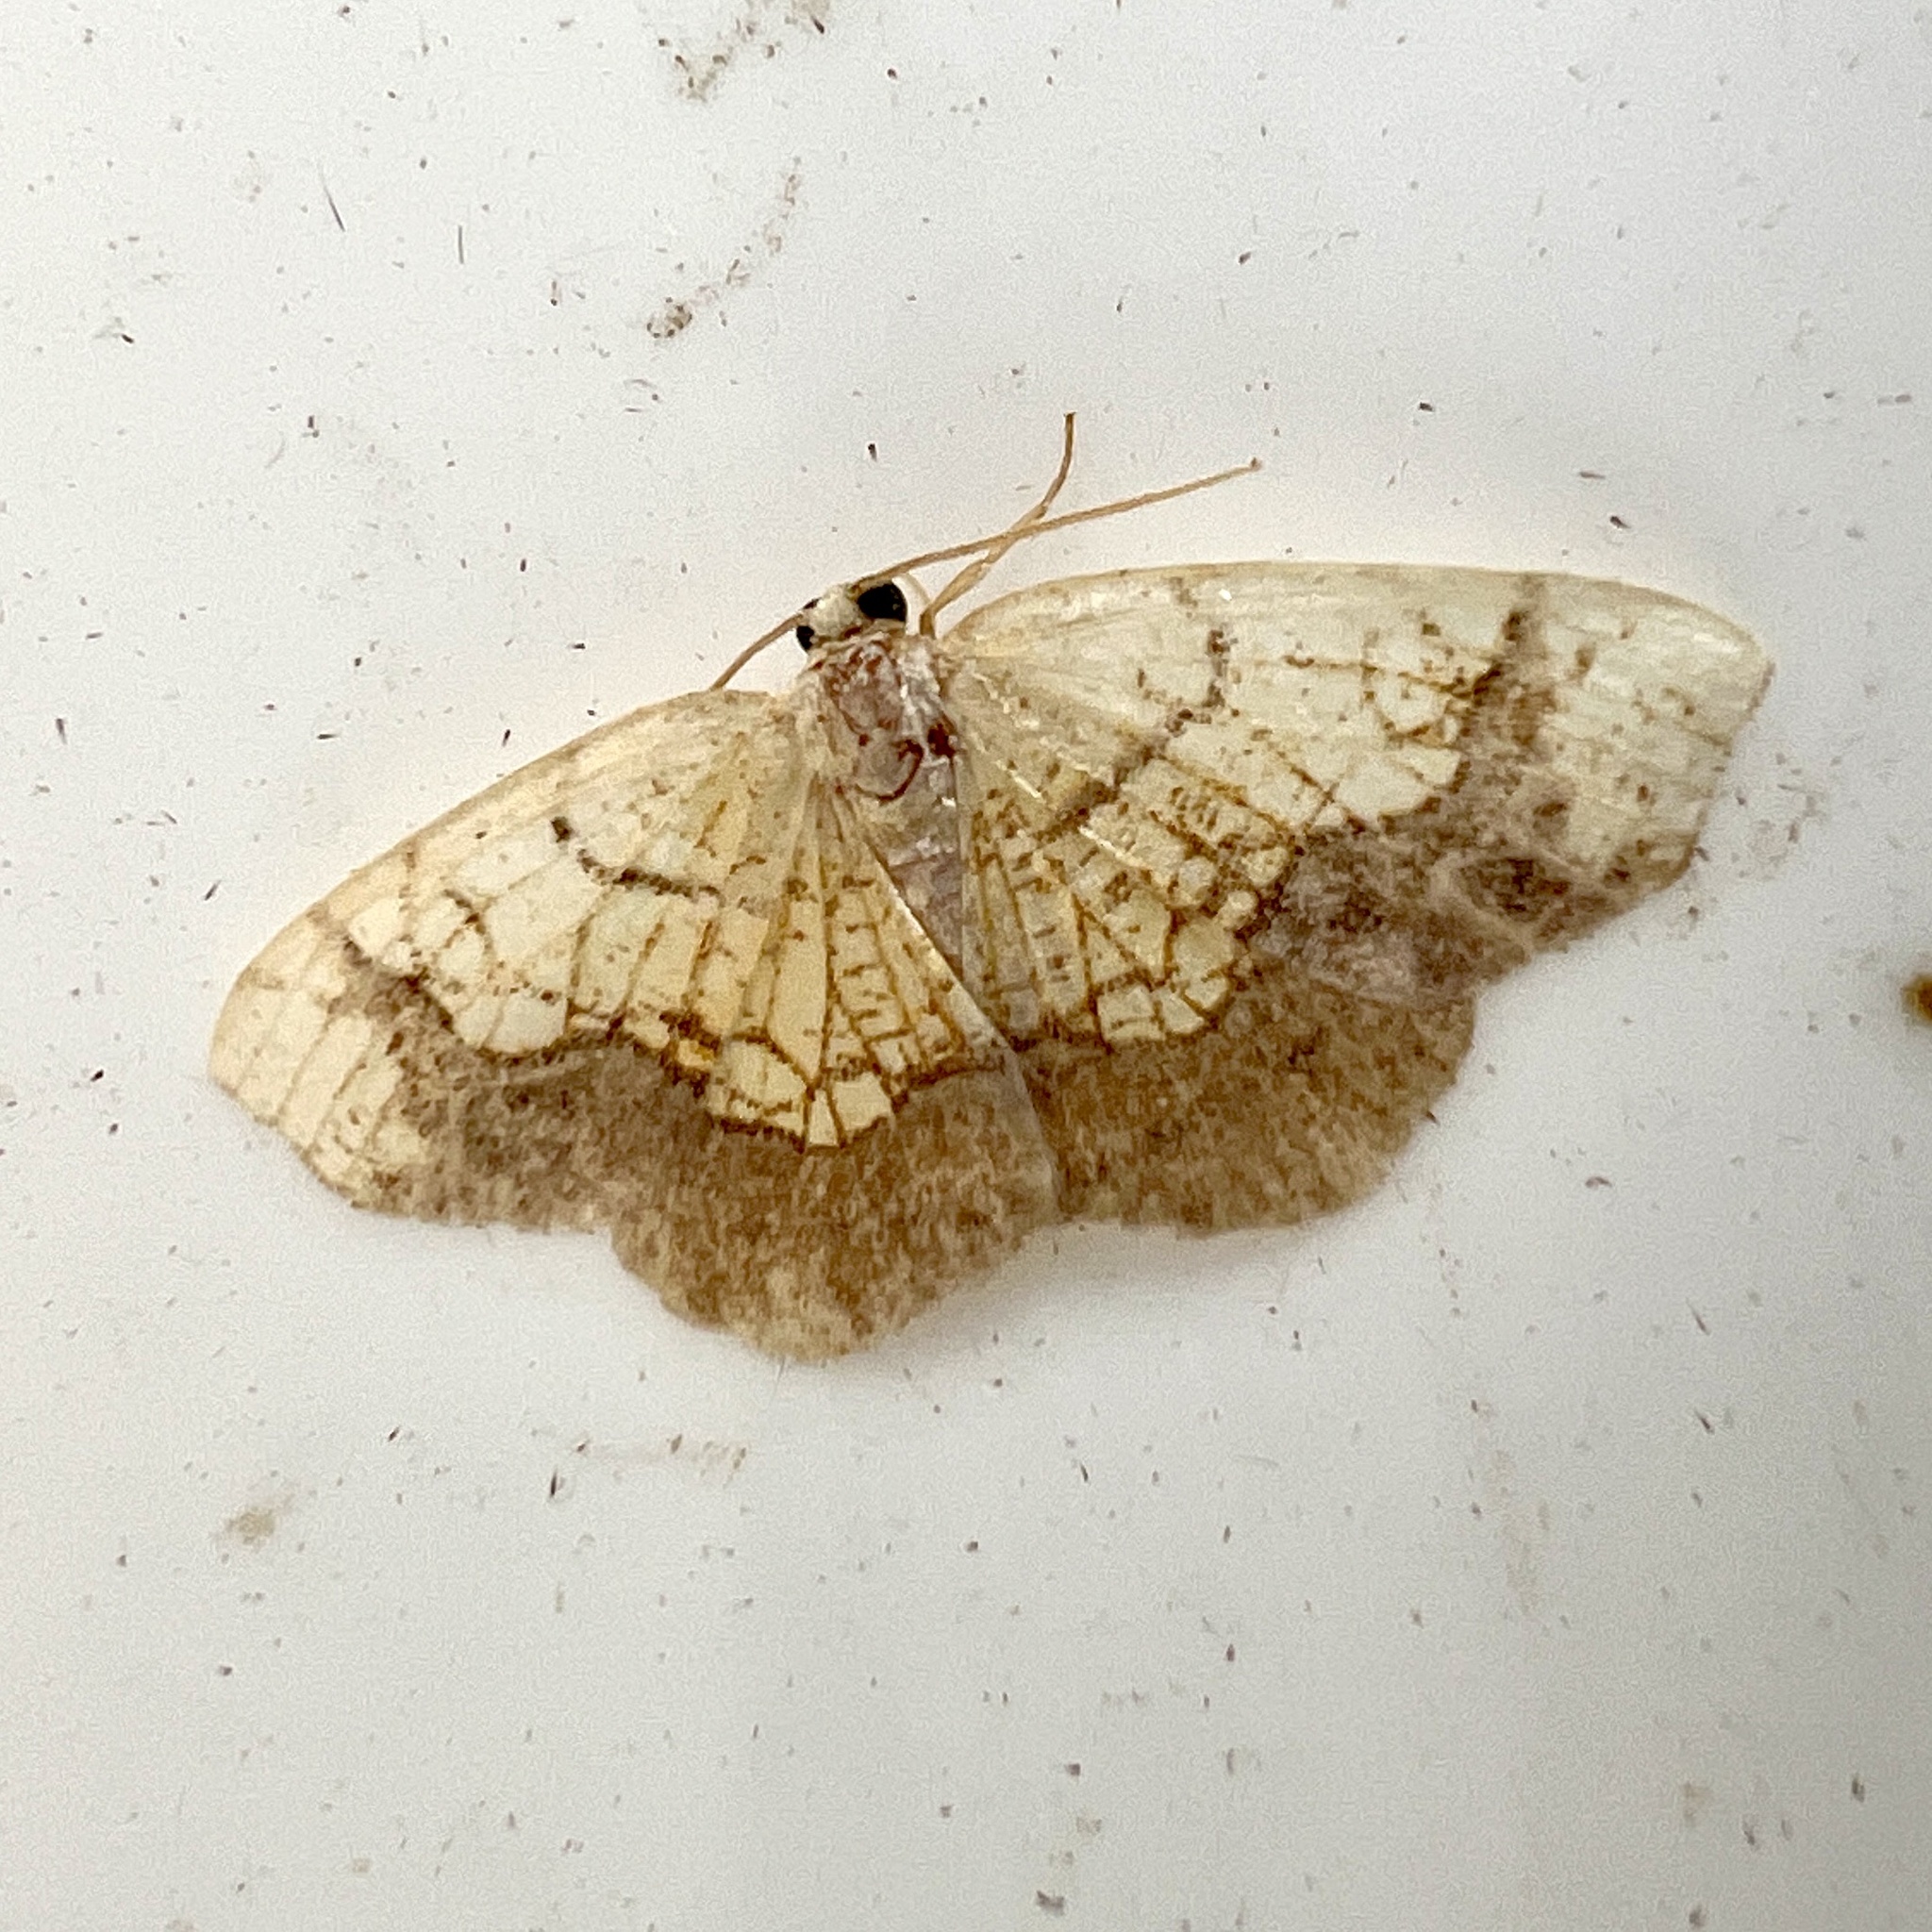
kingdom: Animalia
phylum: Arthropoda
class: Insecta
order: Lepidoptera
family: Geometridae
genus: Nematocampa
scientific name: Nematocampa resistaria
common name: Horned spanworm moth
